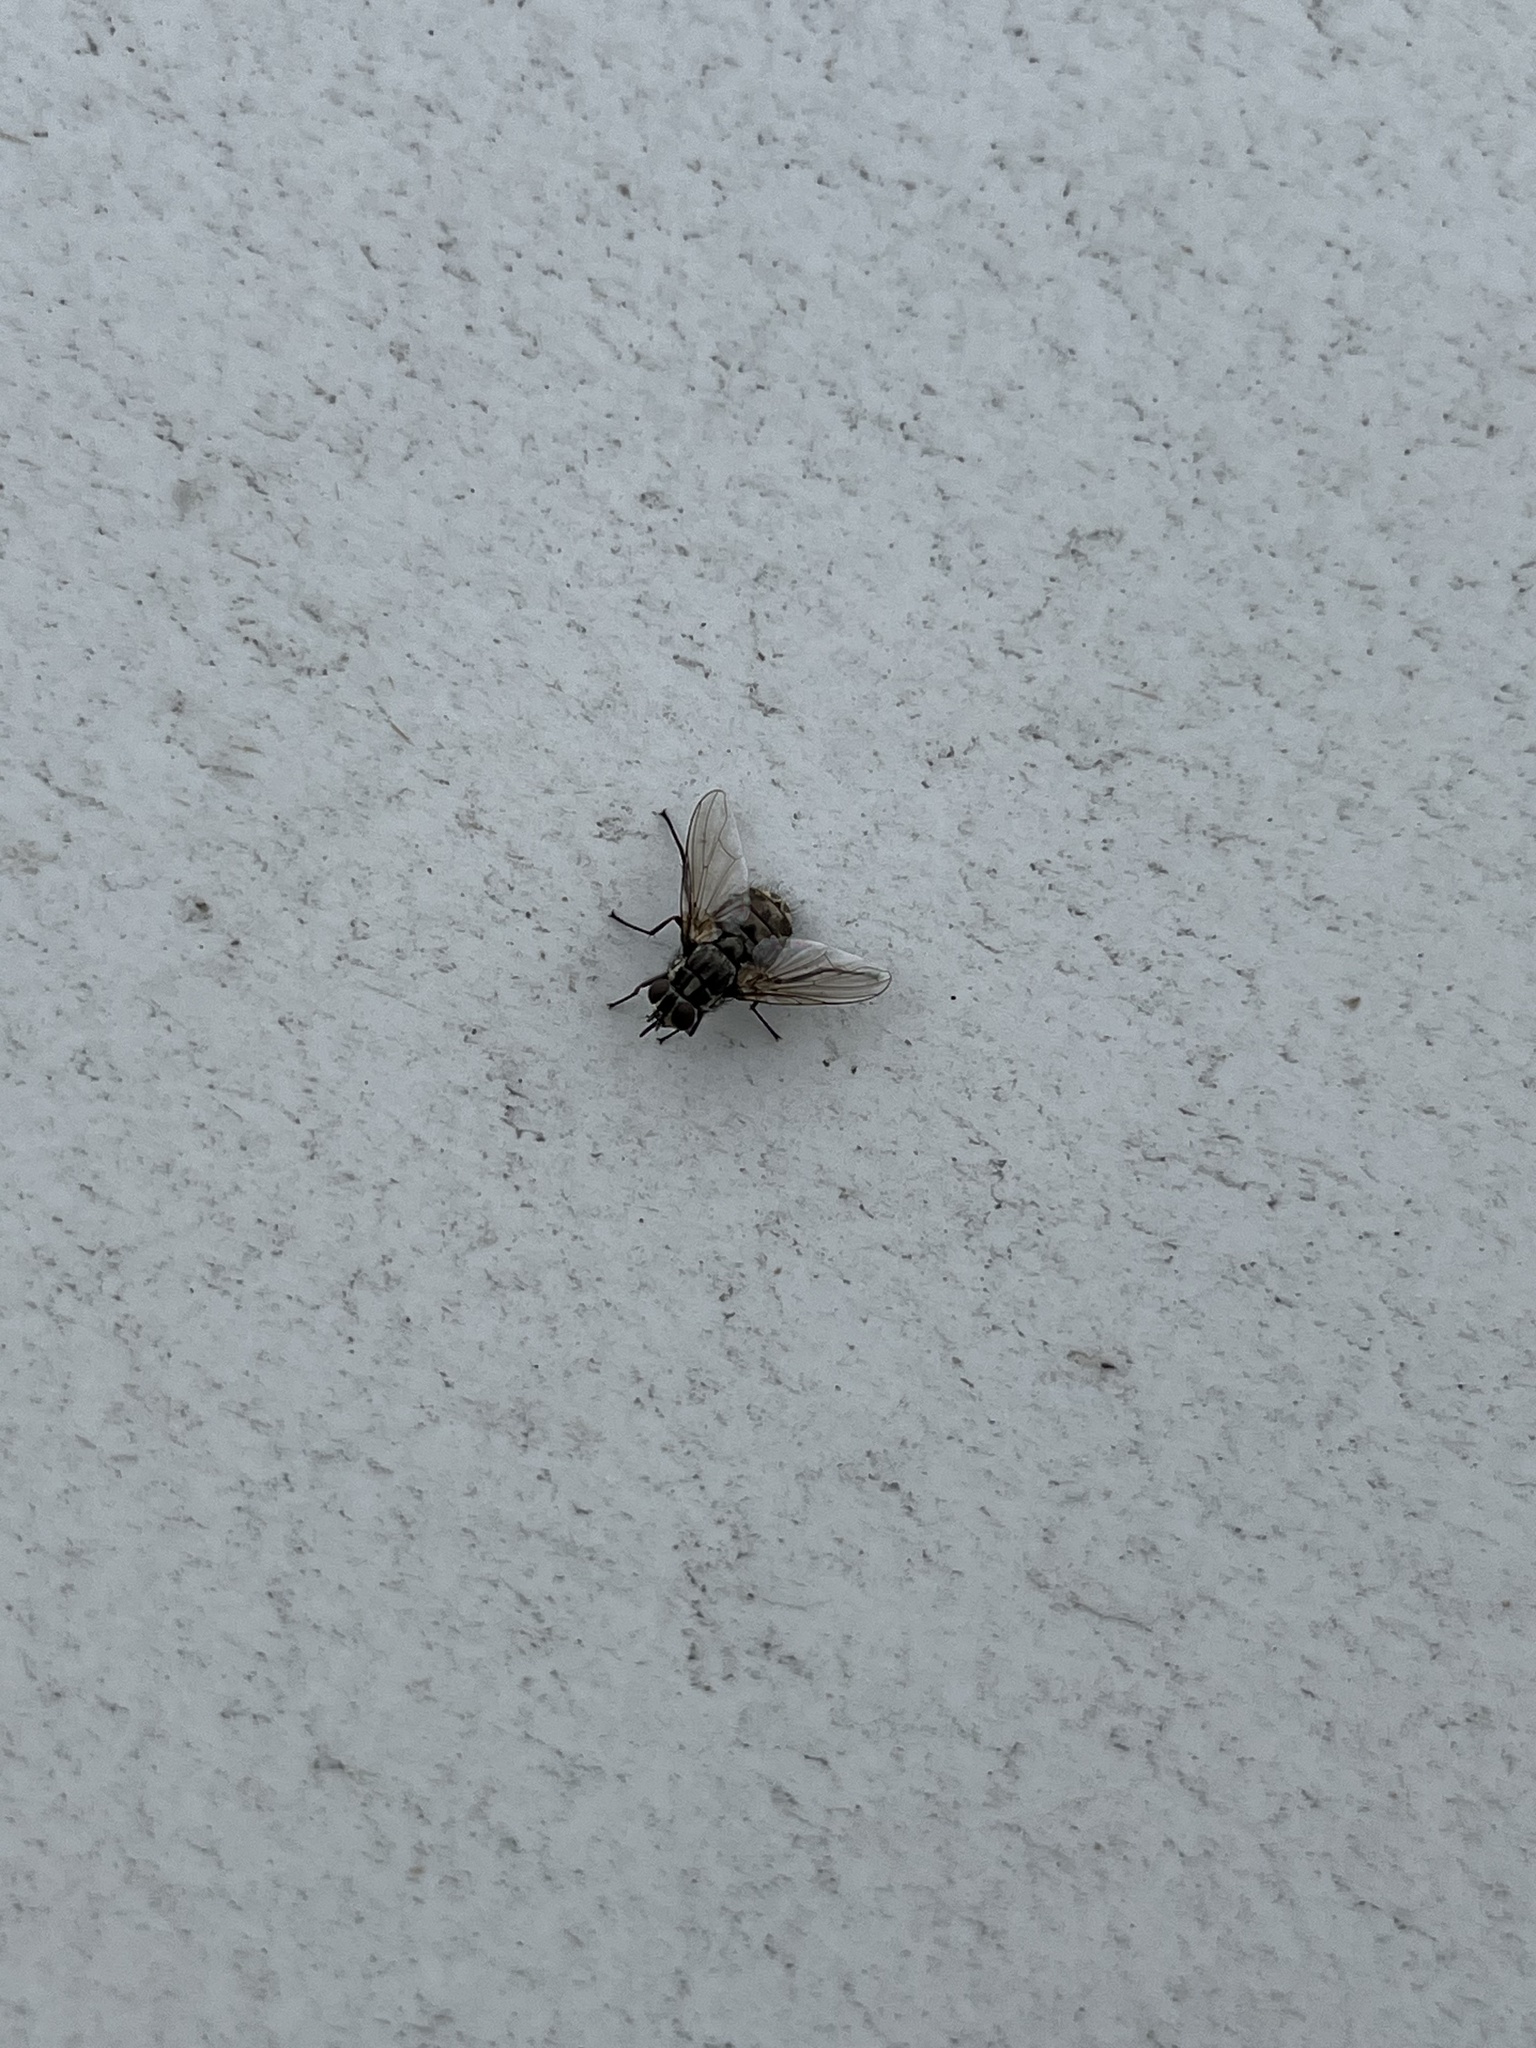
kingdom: Animalia
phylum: Arthropoda
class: Insecta
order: Diptera
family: Muscidae
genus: Stomoxys
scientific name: Stomoxys calcitrans
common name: Stable fly
